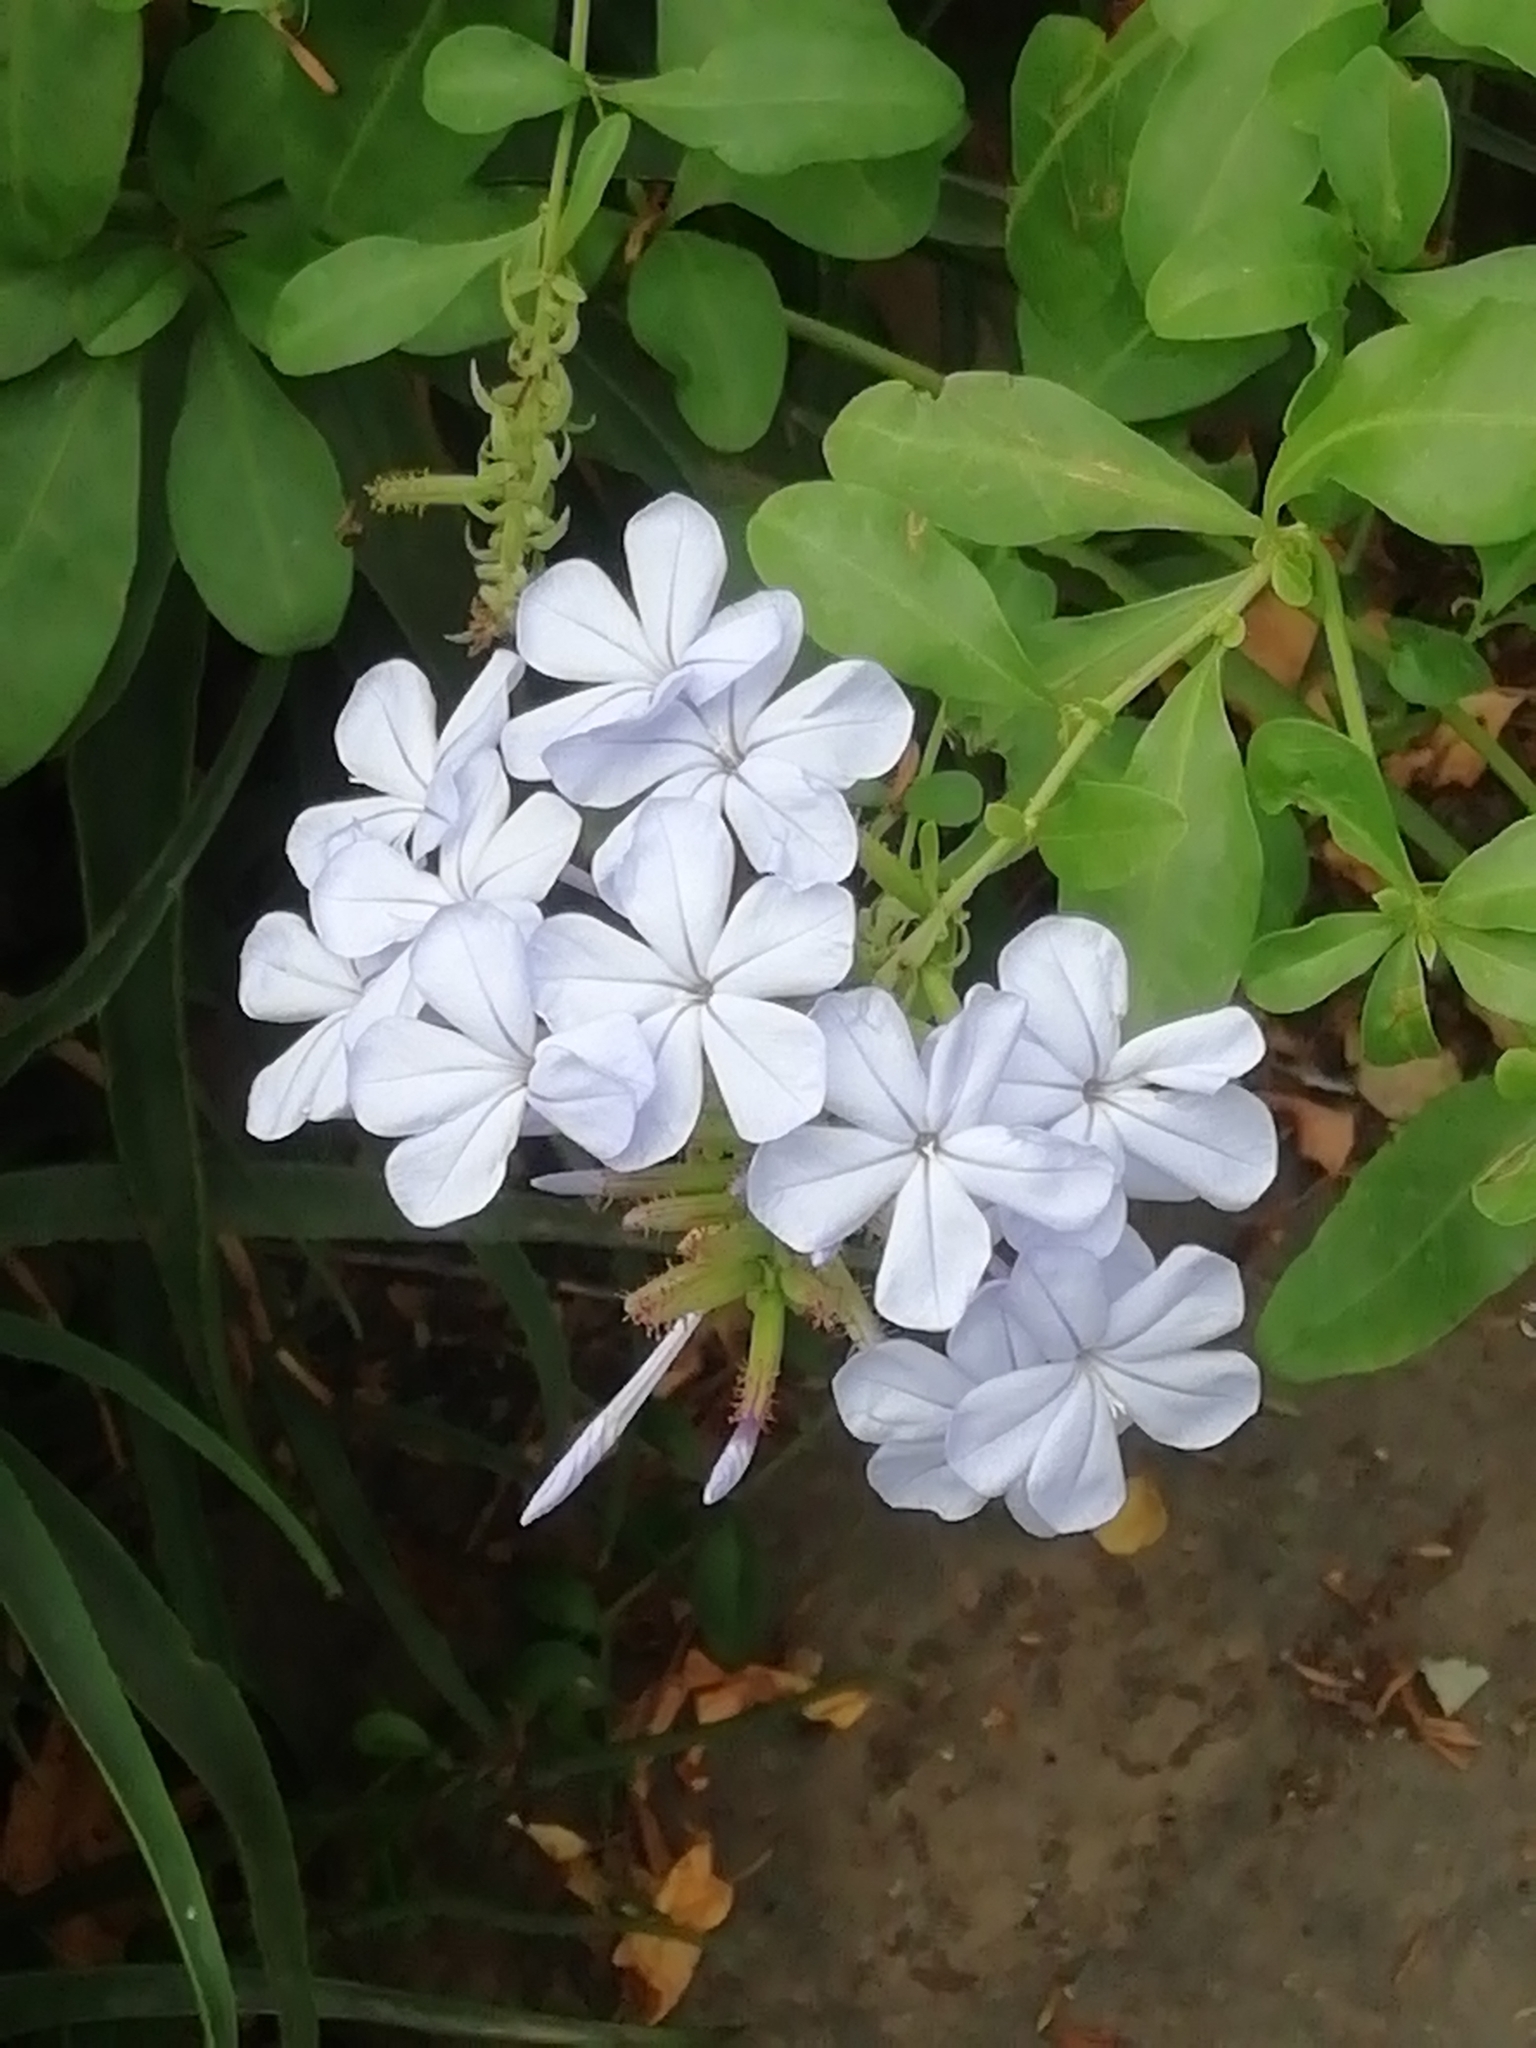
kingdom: Plantae
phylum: Tracheophyta
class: Magnoliopsida
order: Caryophyllales
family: Plumbaginaceae
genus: Plumbago
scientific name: Plumbago auriculata
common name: Cape leadwort
